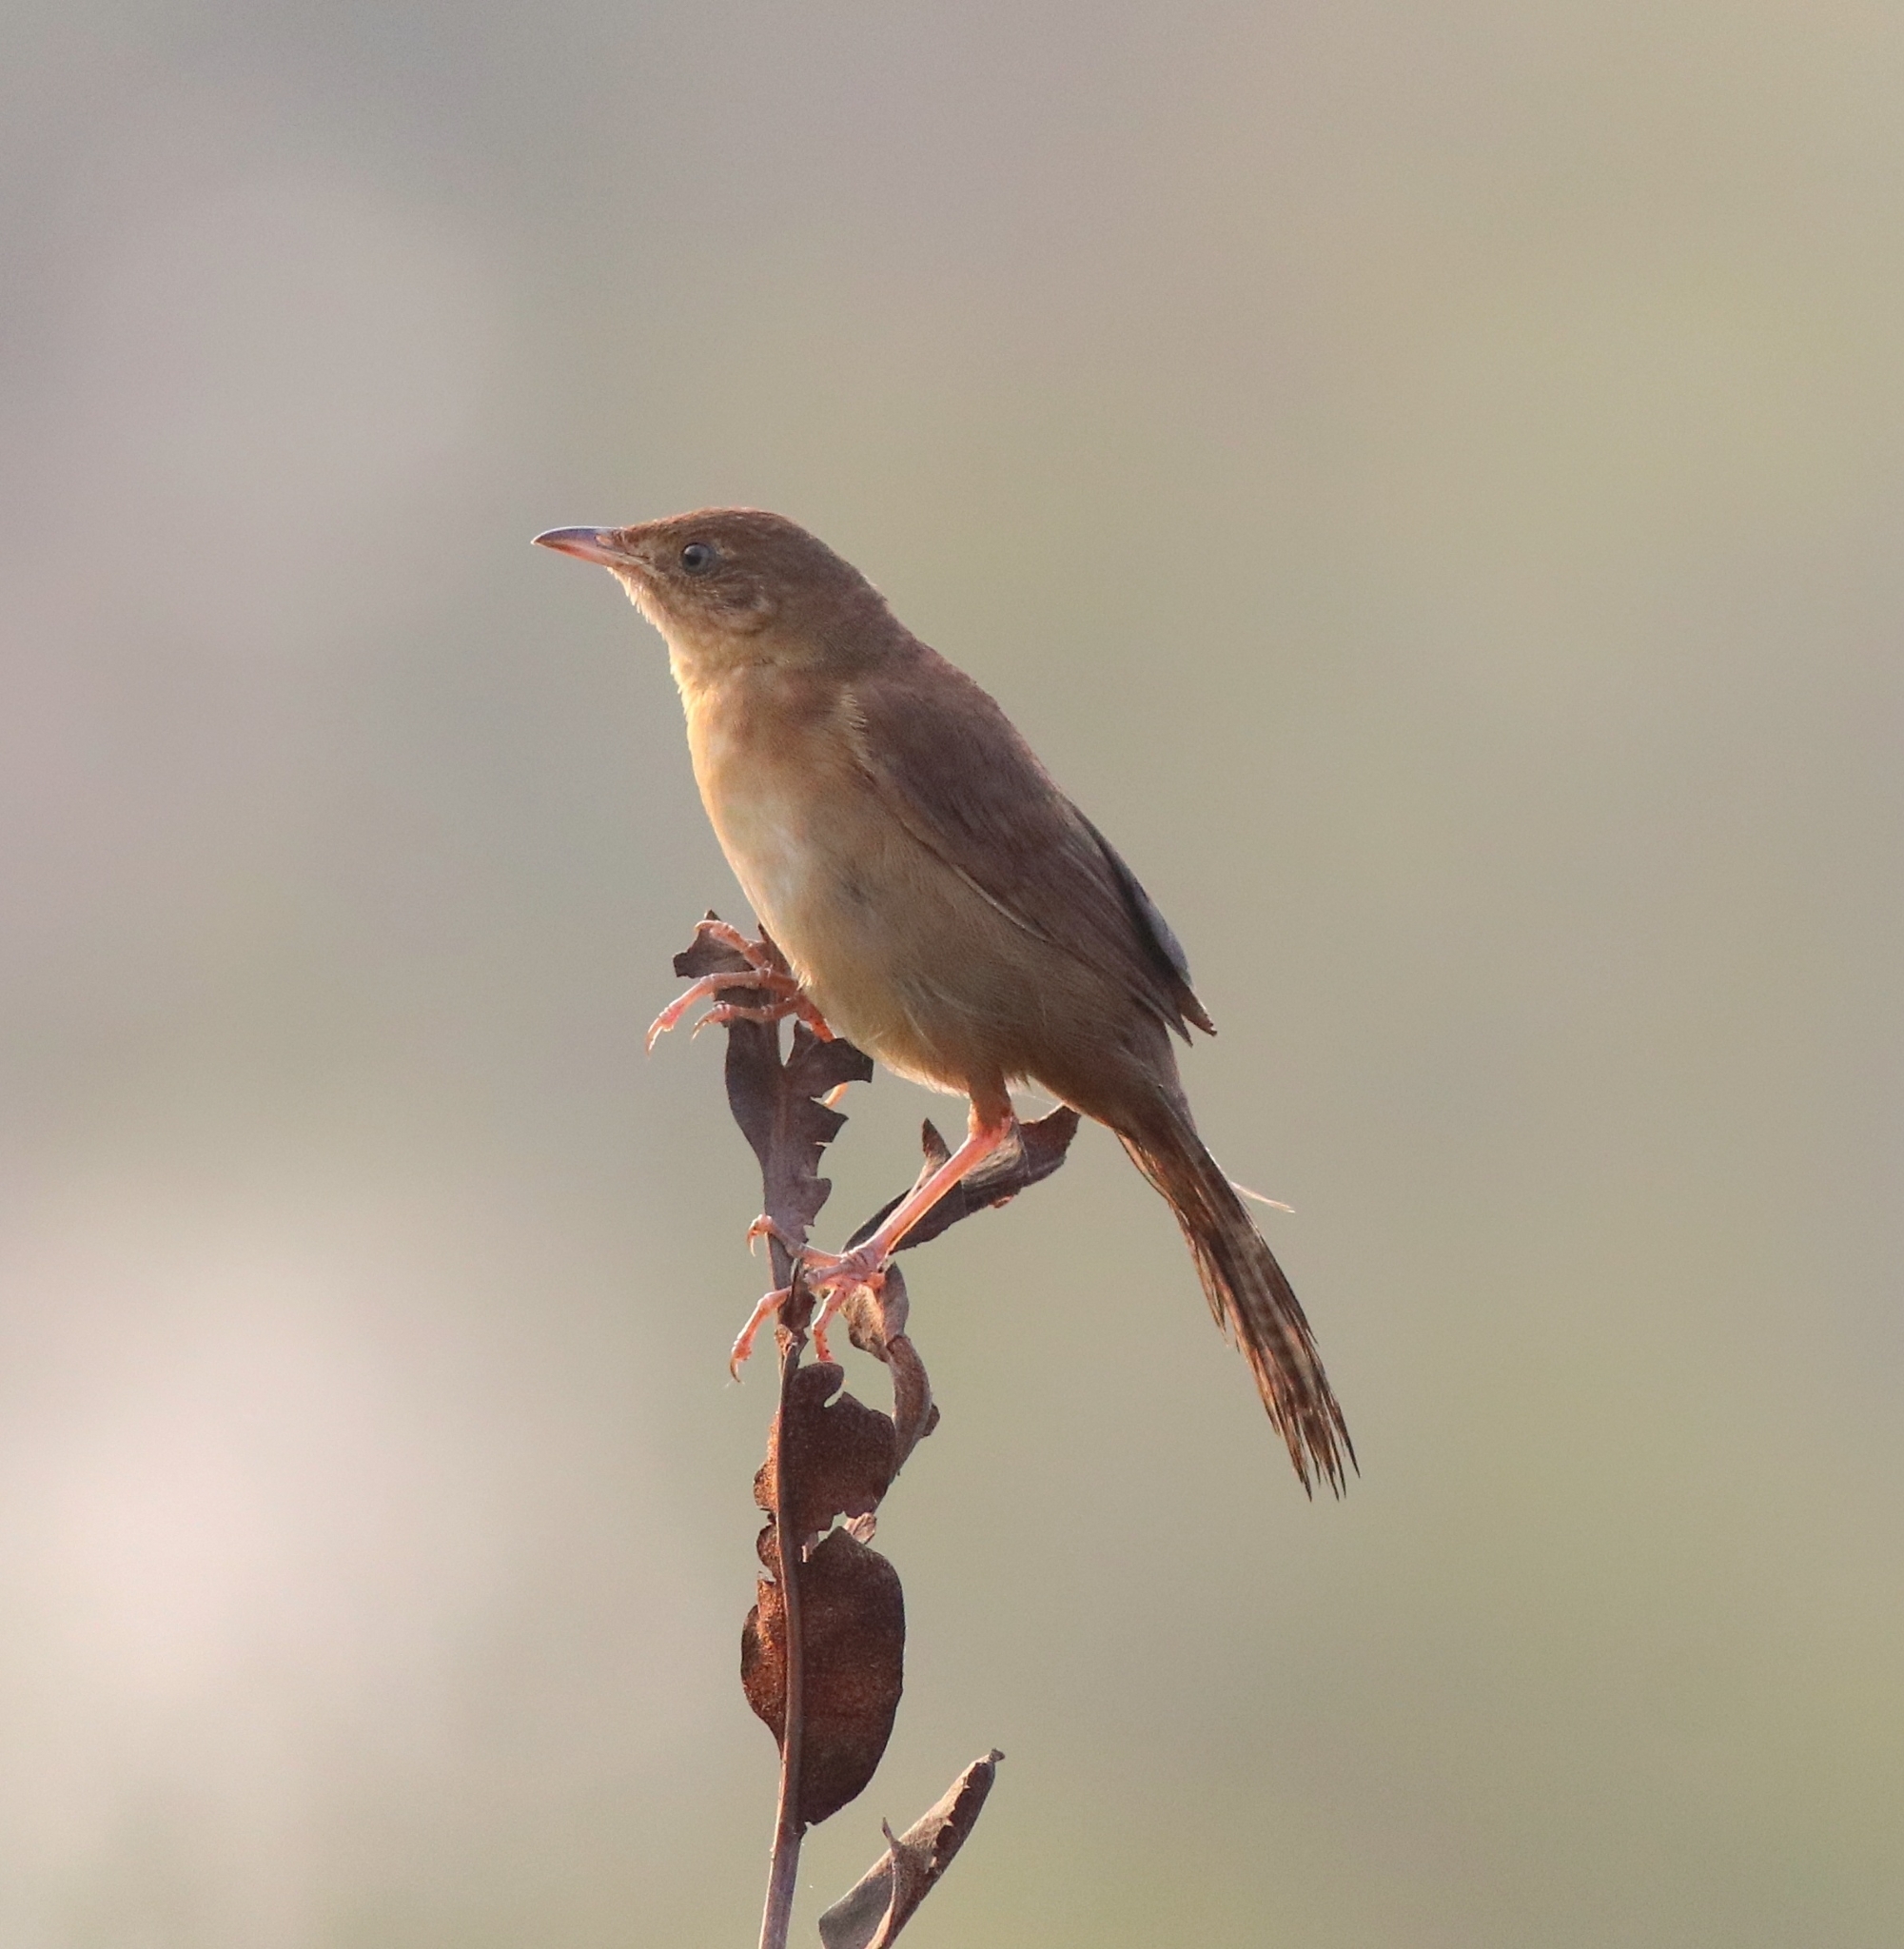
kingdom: Animalia
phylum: Chordata
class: Aves
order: Passeriformes
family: Locustellidae
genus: Schoenicola
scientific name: Schoenicola platyurus
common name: Broad-tailed grassbird
